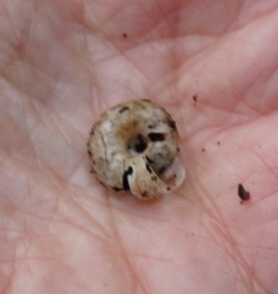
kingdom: Animalia
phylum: Mollusca
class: Gastropoda
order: Stylommatophora
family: Haplotrematidae
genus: Haplotrema
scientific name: Haplotrema minimum
